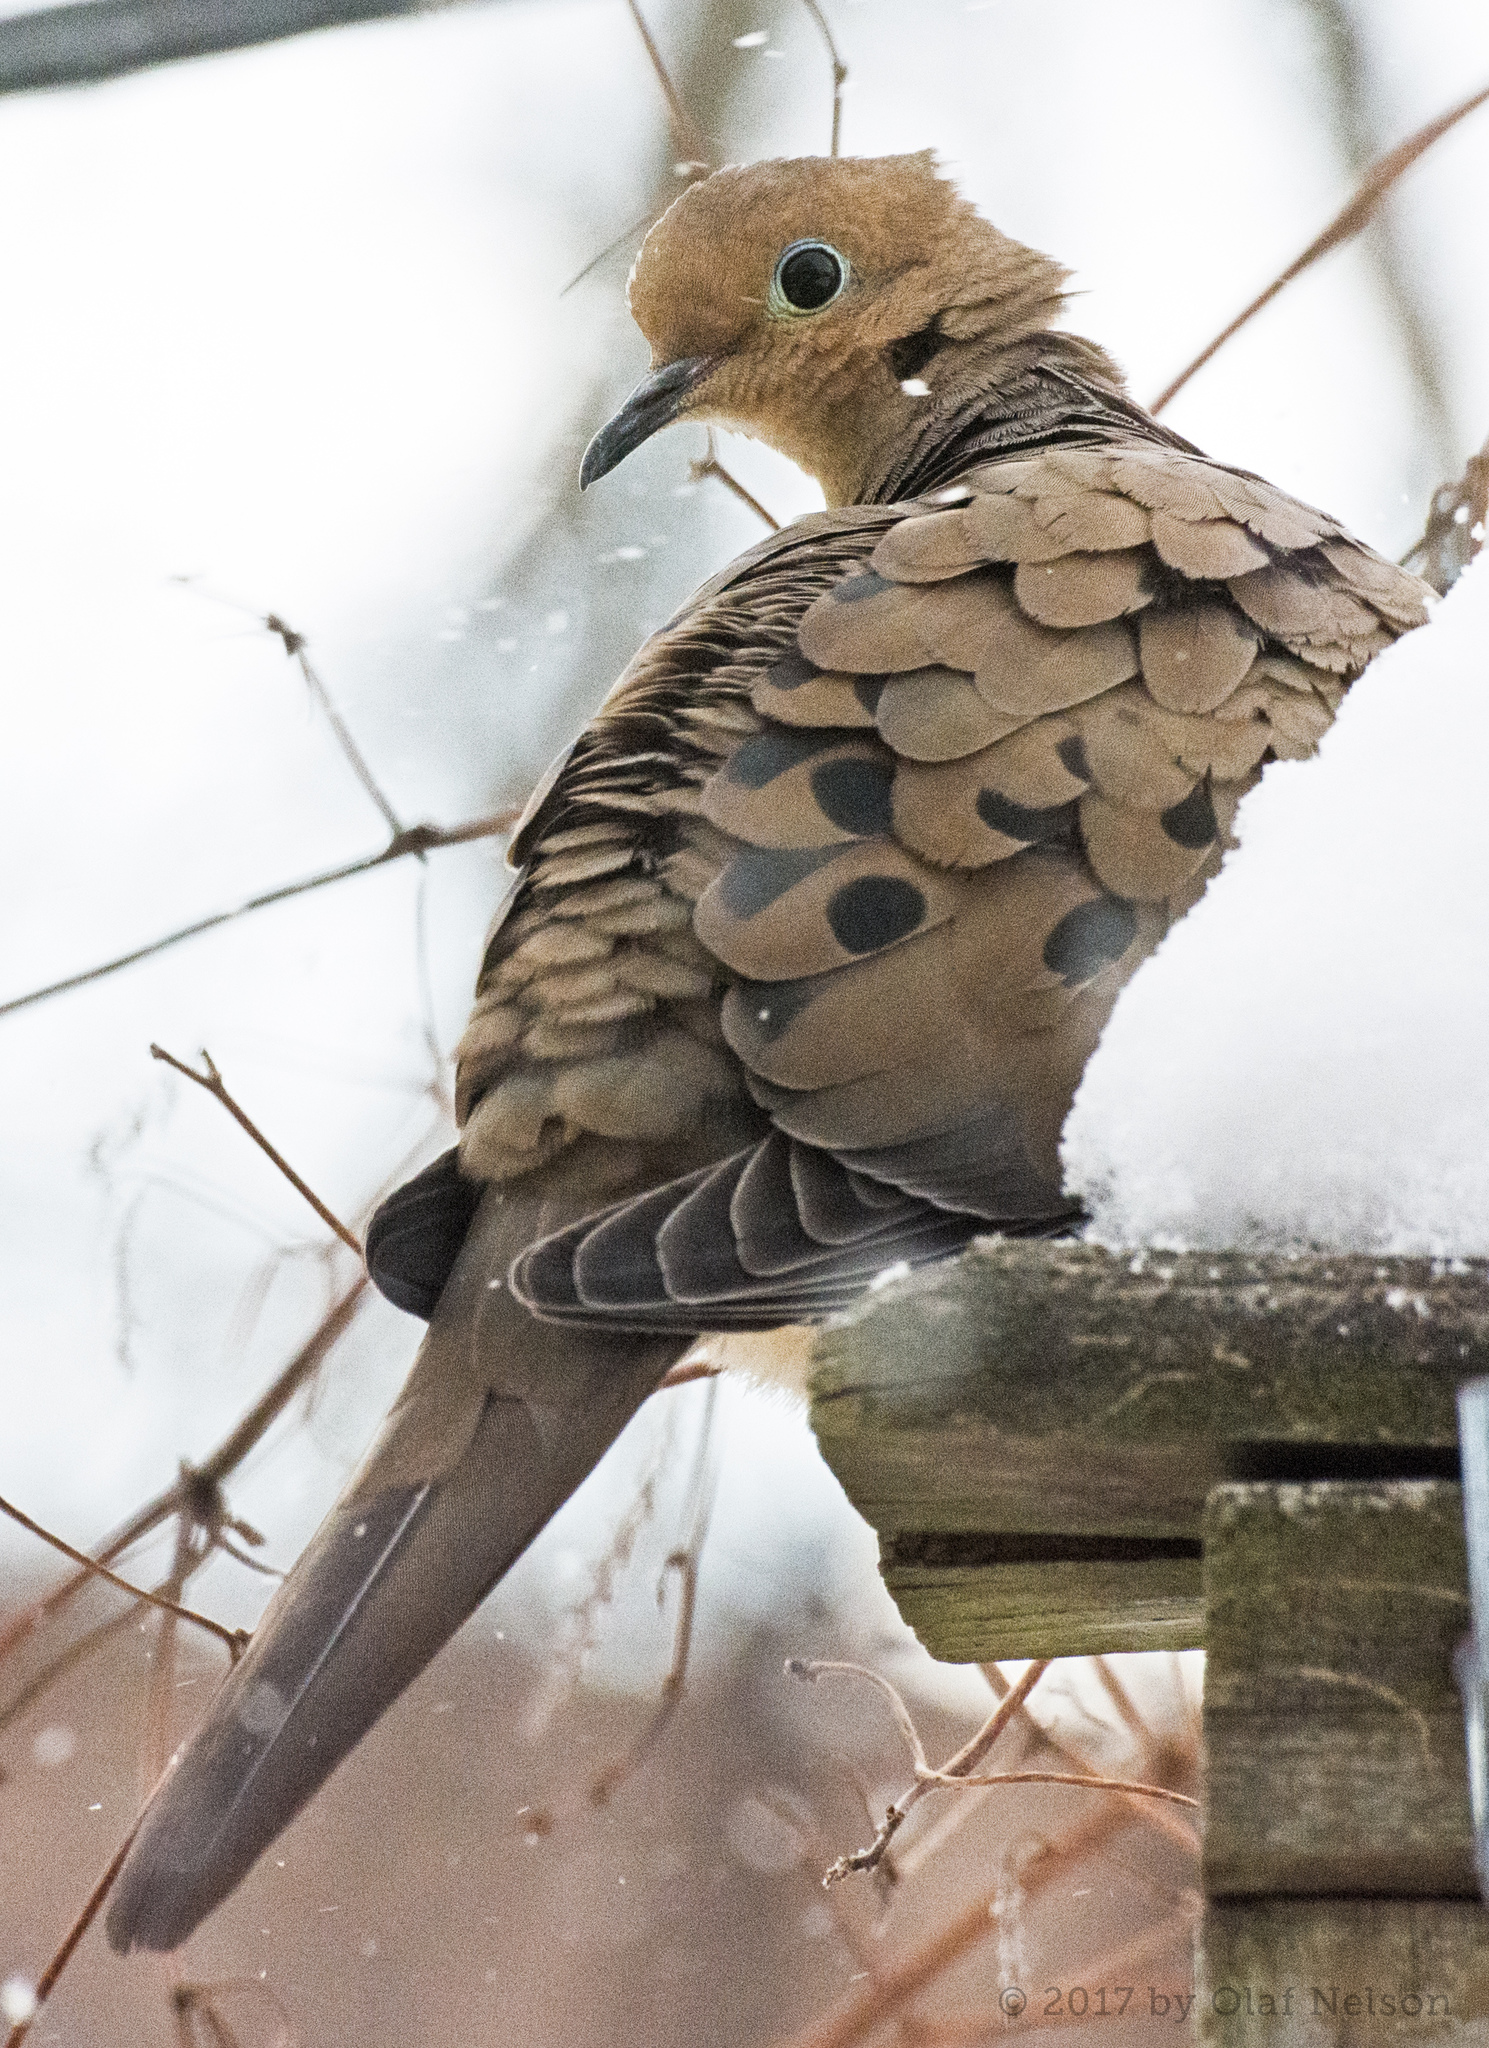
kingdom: Animalia
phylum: Chordata
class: Aves
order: Columbiformes
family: Columbidae
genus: Zenaida
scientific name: Zenaida macroura
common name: Mourning dove
